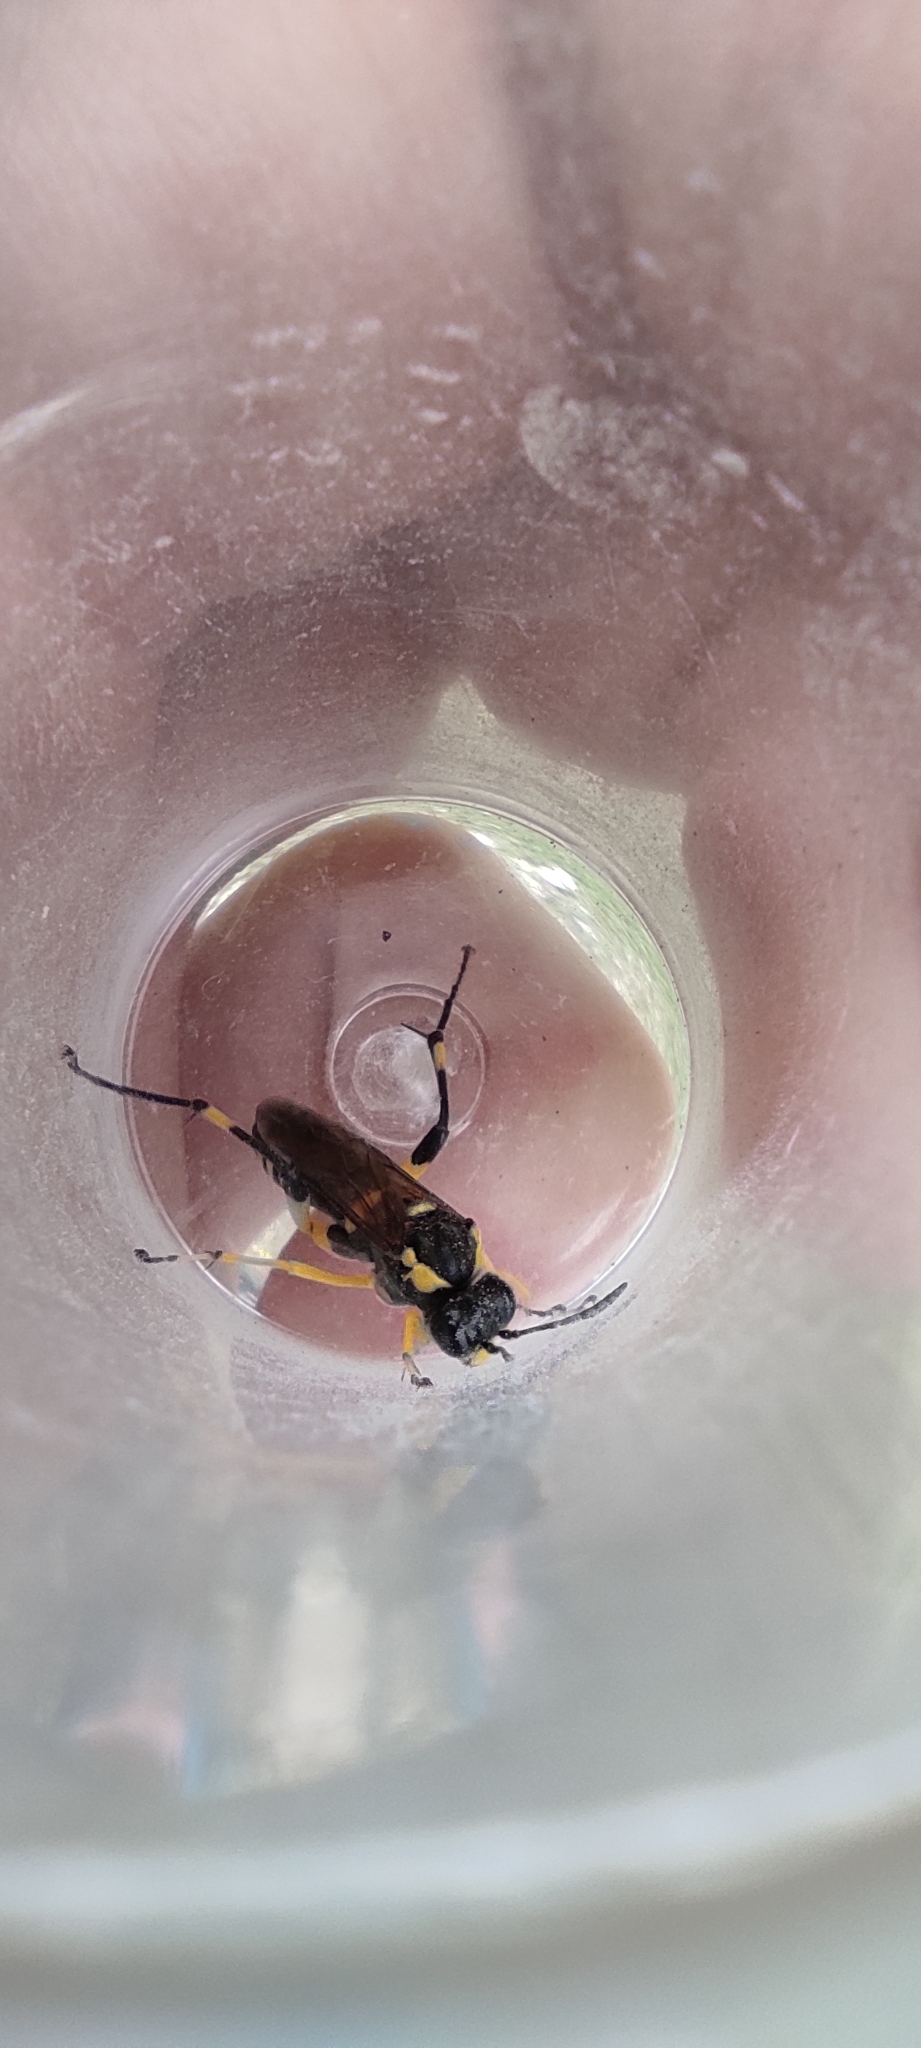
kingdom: Animalia
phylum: Arthropoda
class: Insecta
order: Hymenoptera
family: Tenthredinidae
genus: Macrophya
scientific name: Macrophya montana
